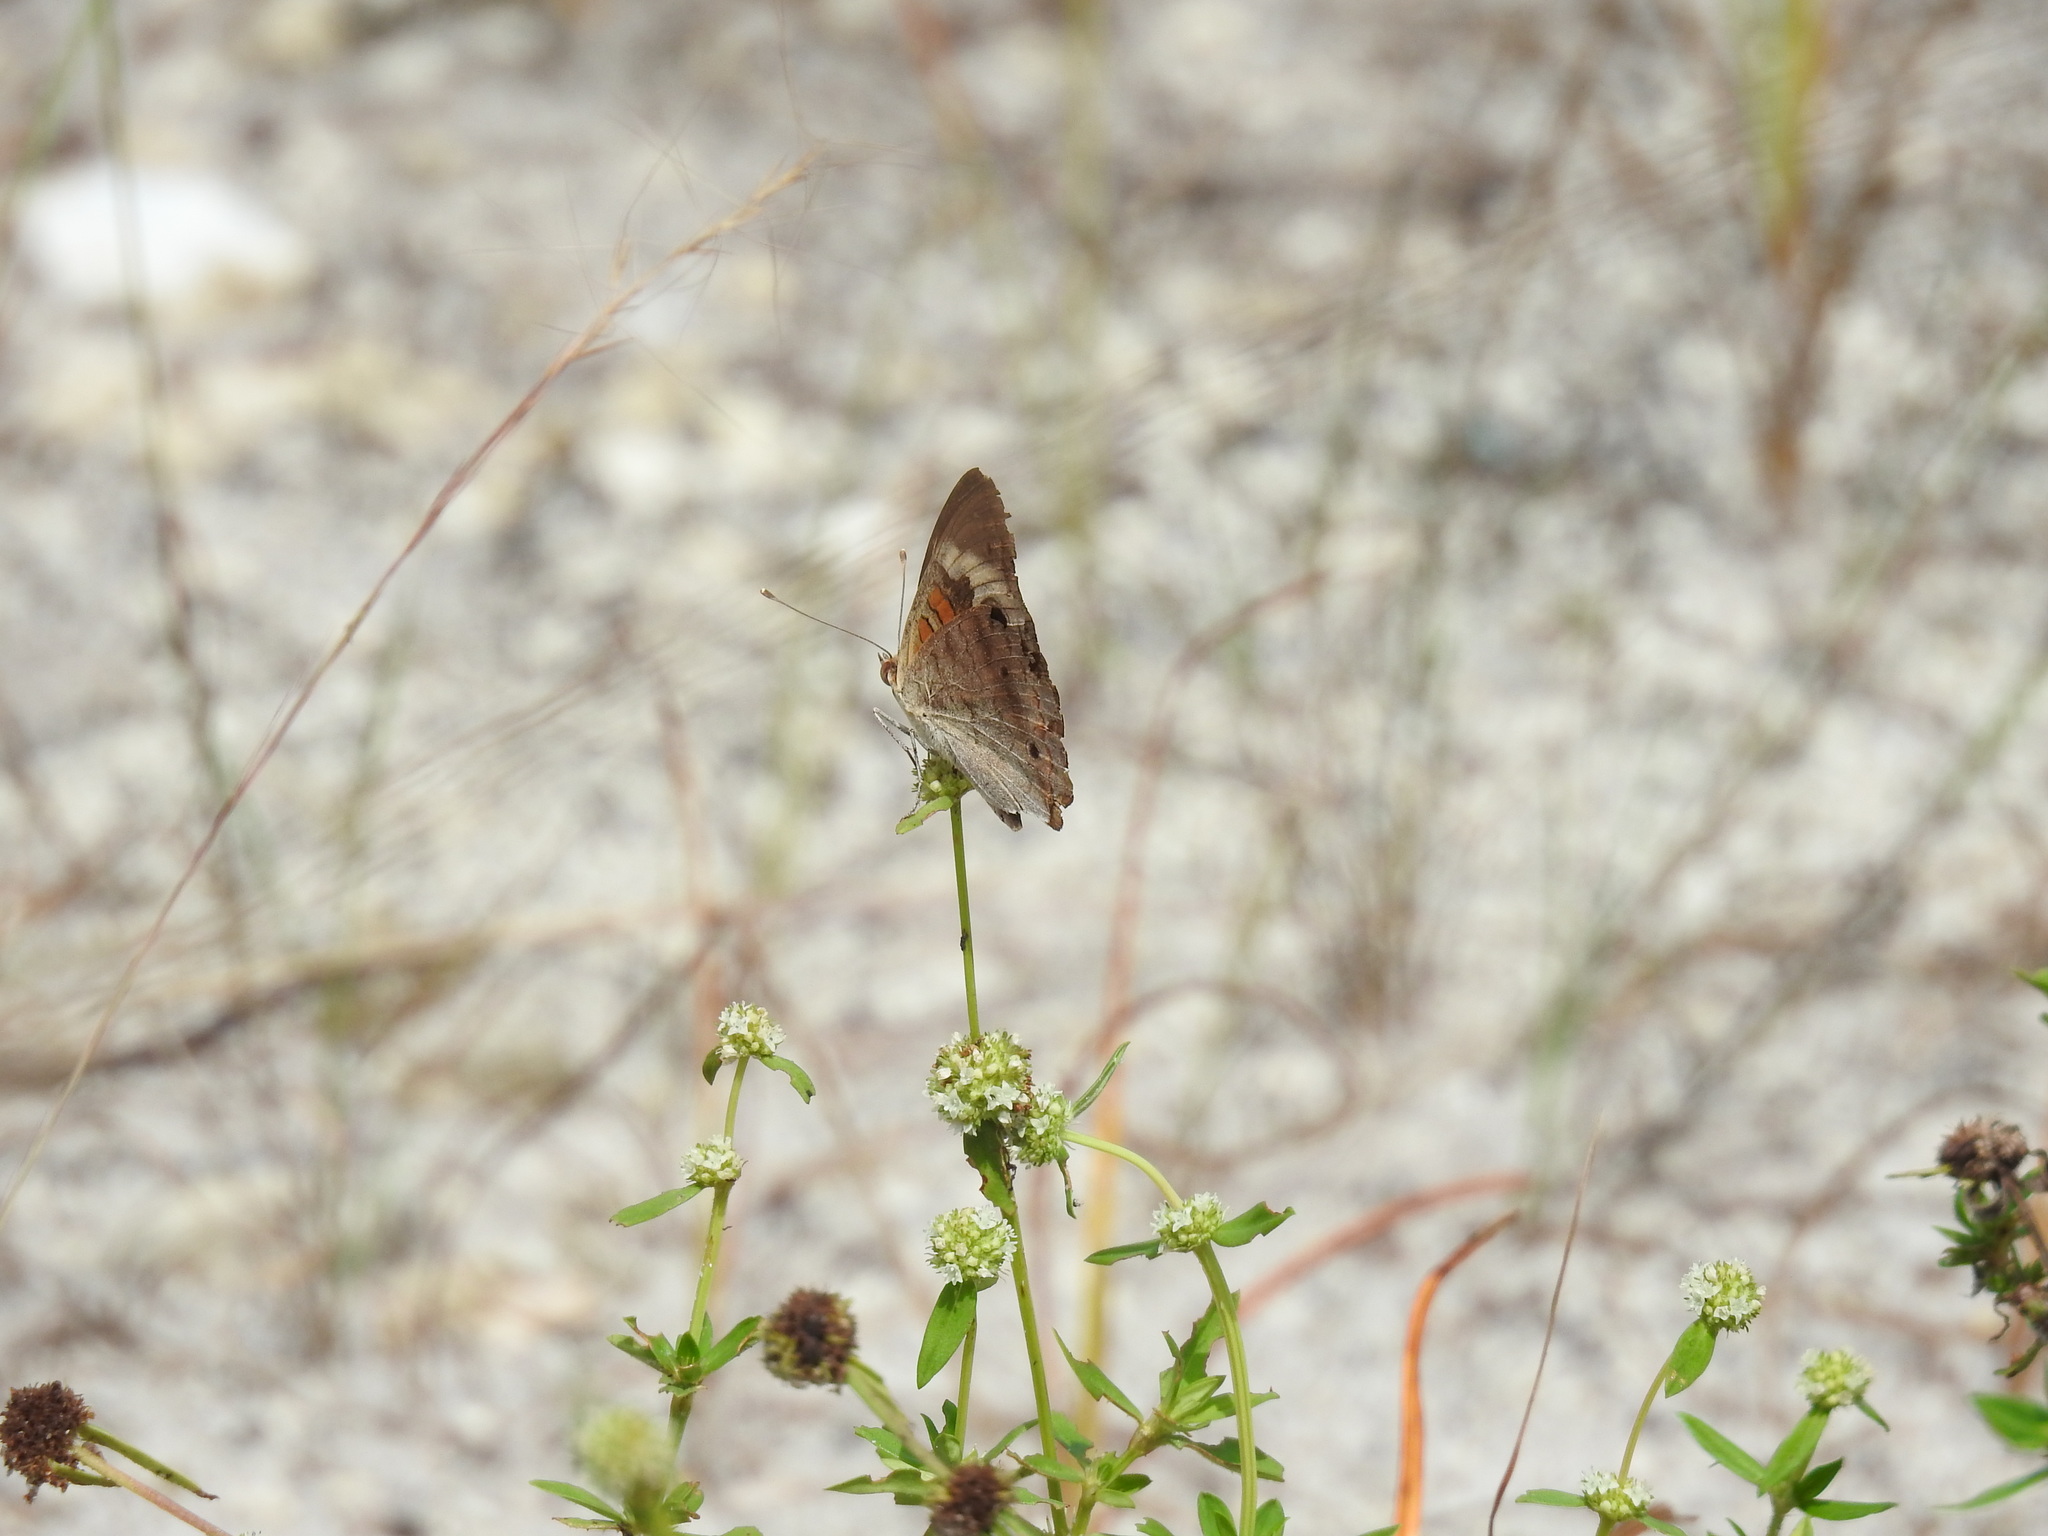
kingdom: Animalia
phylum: Arthropoda
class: Insecta
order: Lepidoptera
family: Nymphalidae
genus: Junonia
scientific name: Junonia coenia
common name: Common buckeye
